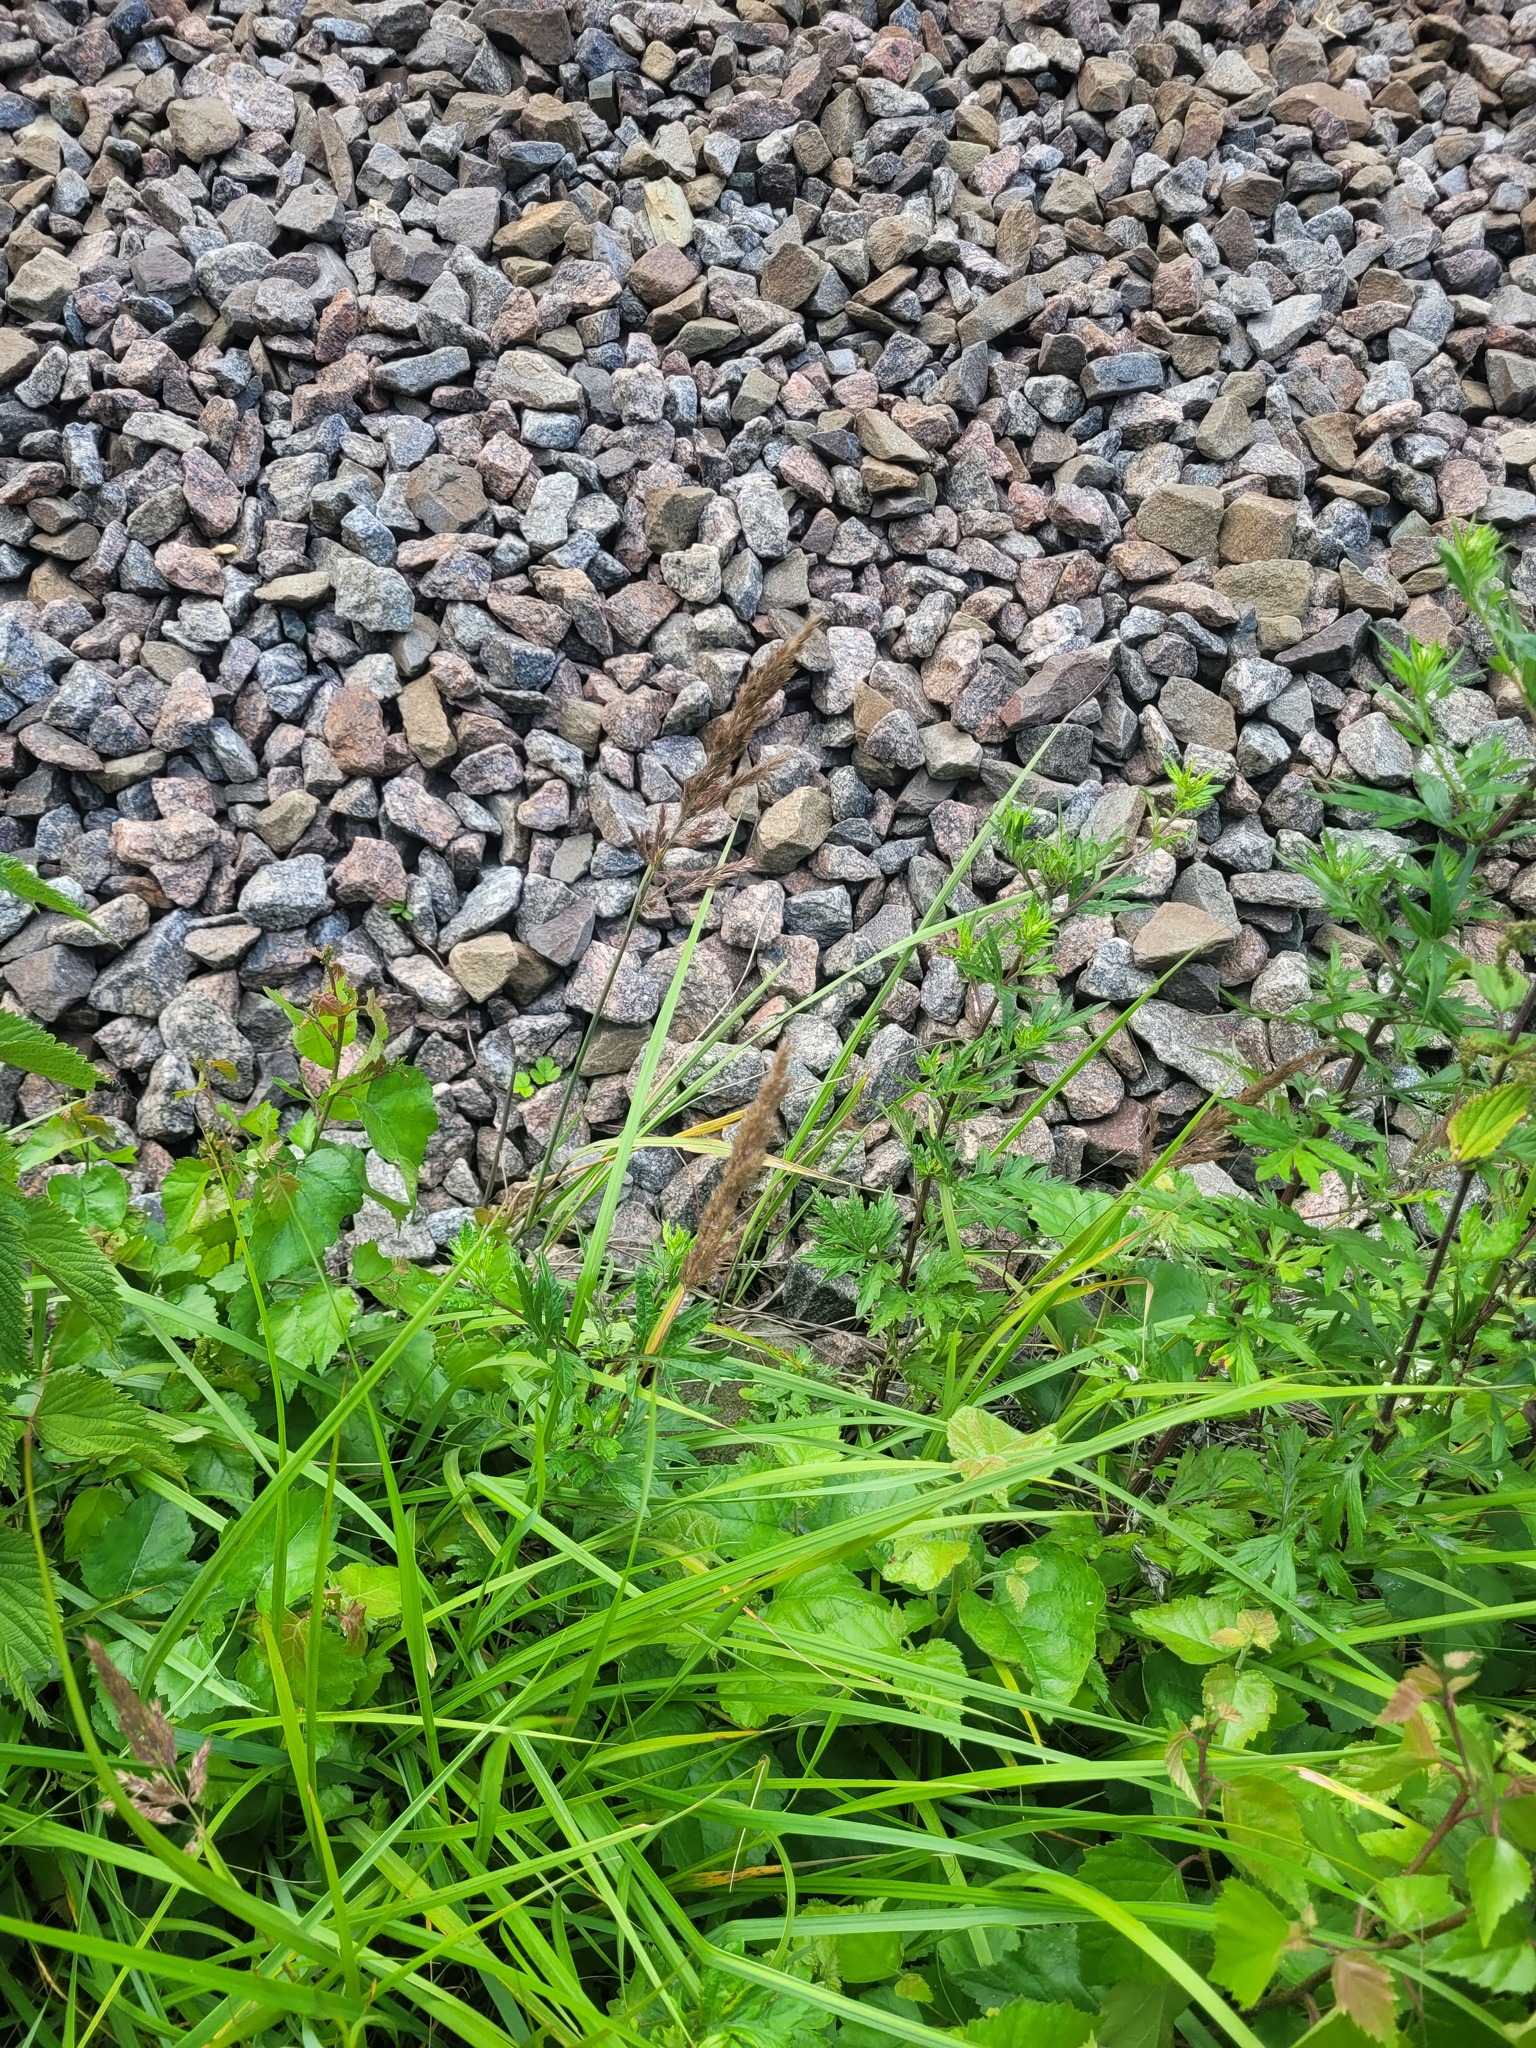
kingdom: Plantae
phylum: Tracheophyta
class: Liliopsida
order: Poales
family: Poaceae
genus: Calamagrostis
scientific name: Calamagrostis epigejos
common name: Wood small-reed
